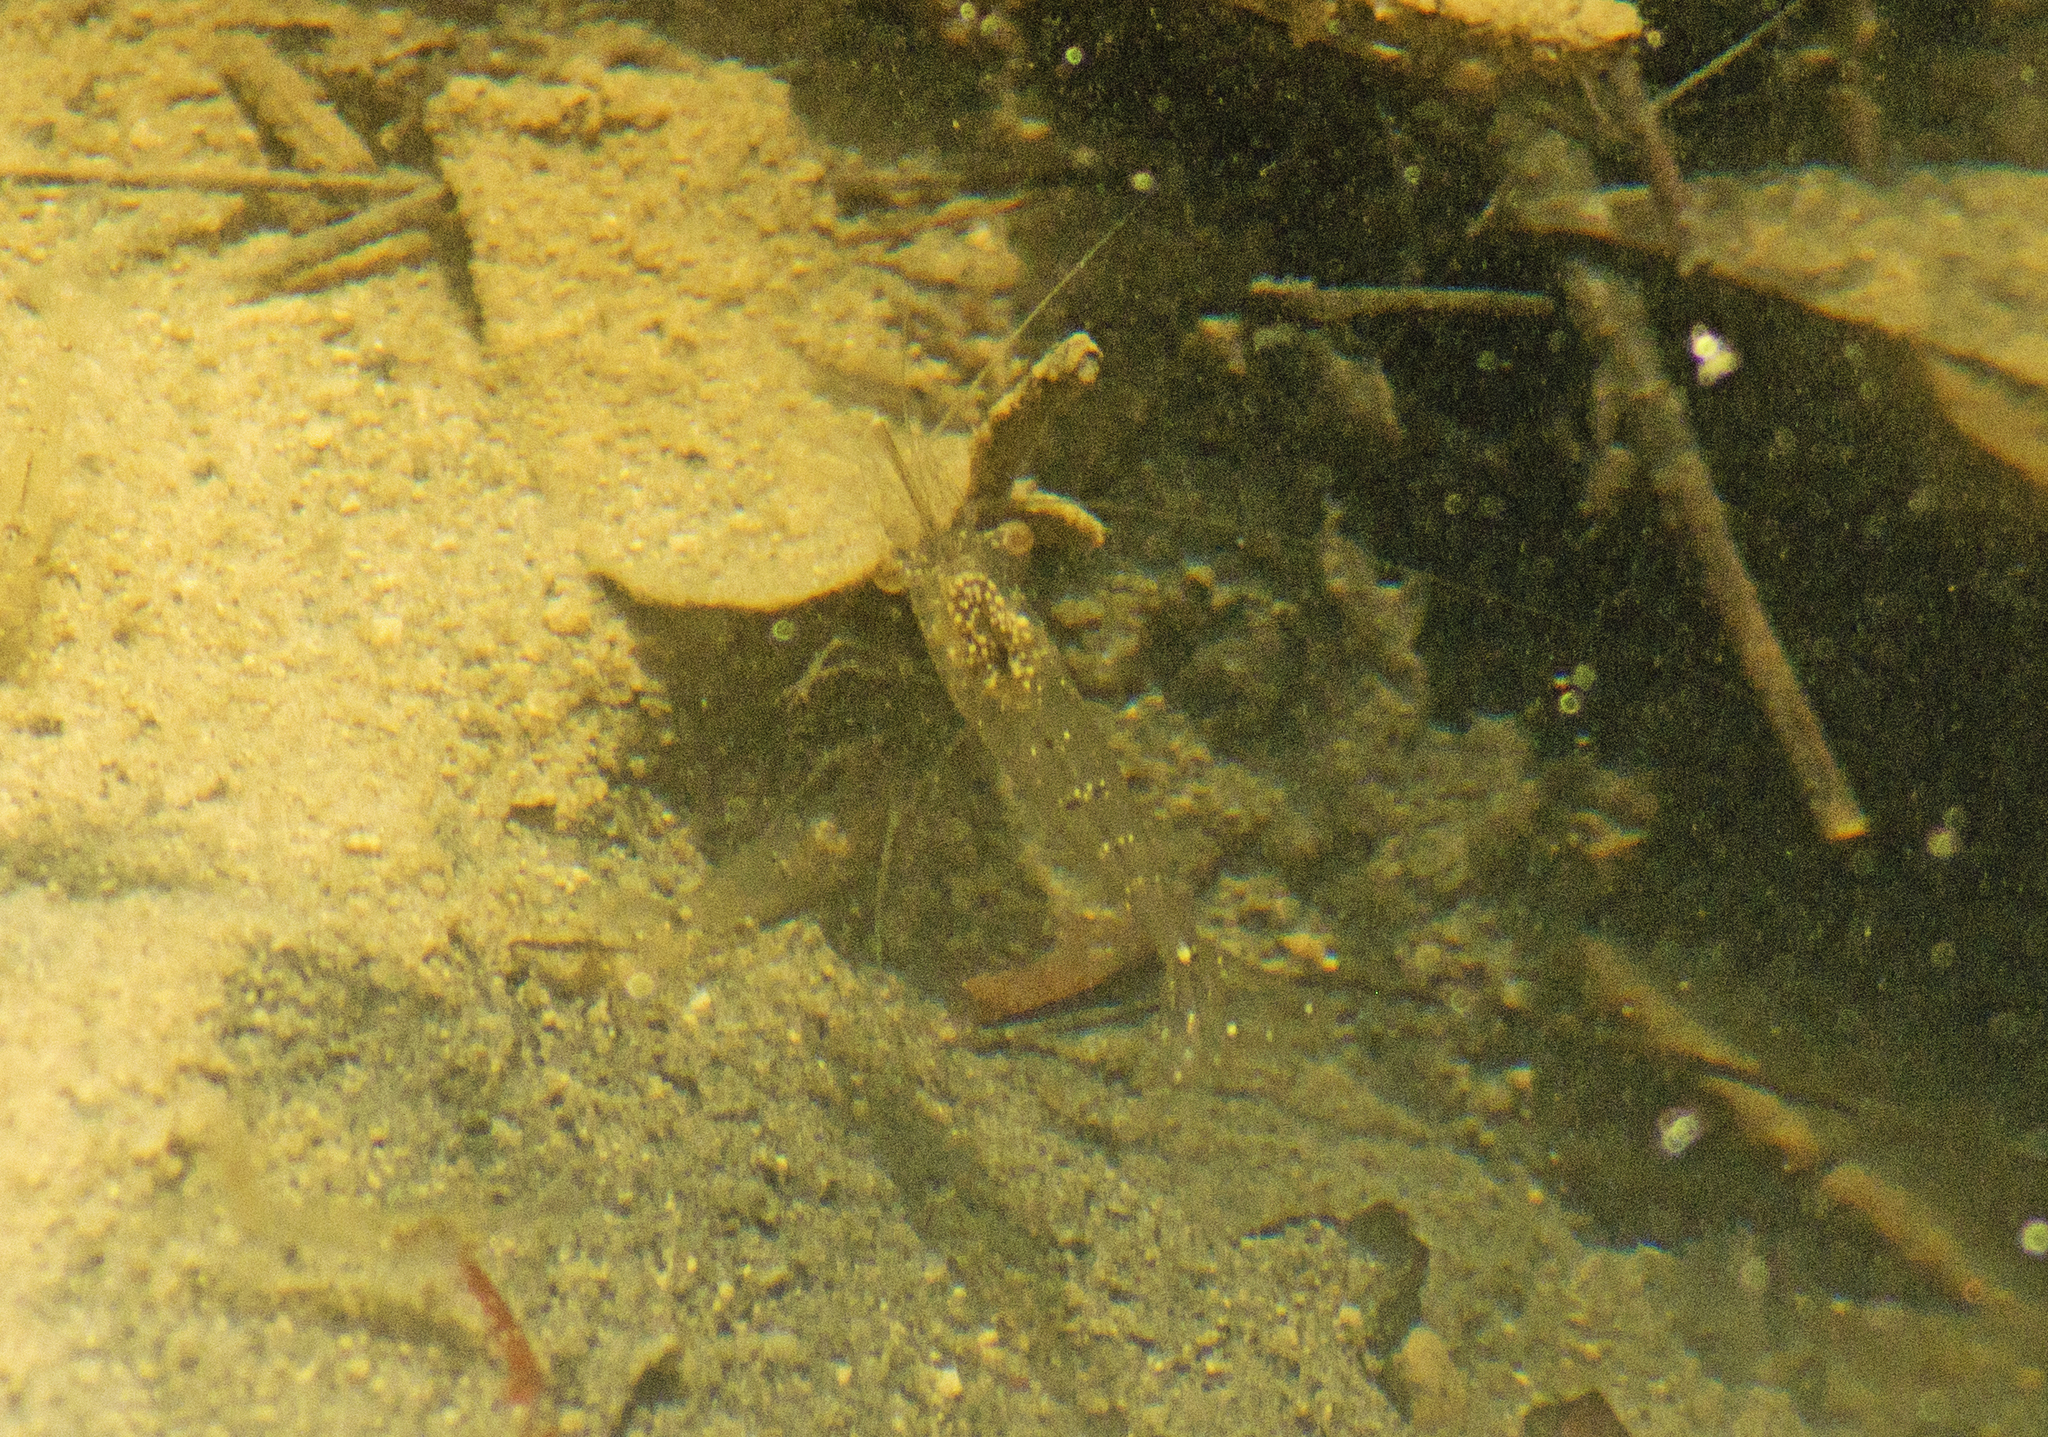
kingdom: Animalia
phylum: Arthropoda
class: Malacostraca
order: Decapoda
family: Palaemonidae
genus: Palaemon
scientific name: Palaemon debilis
